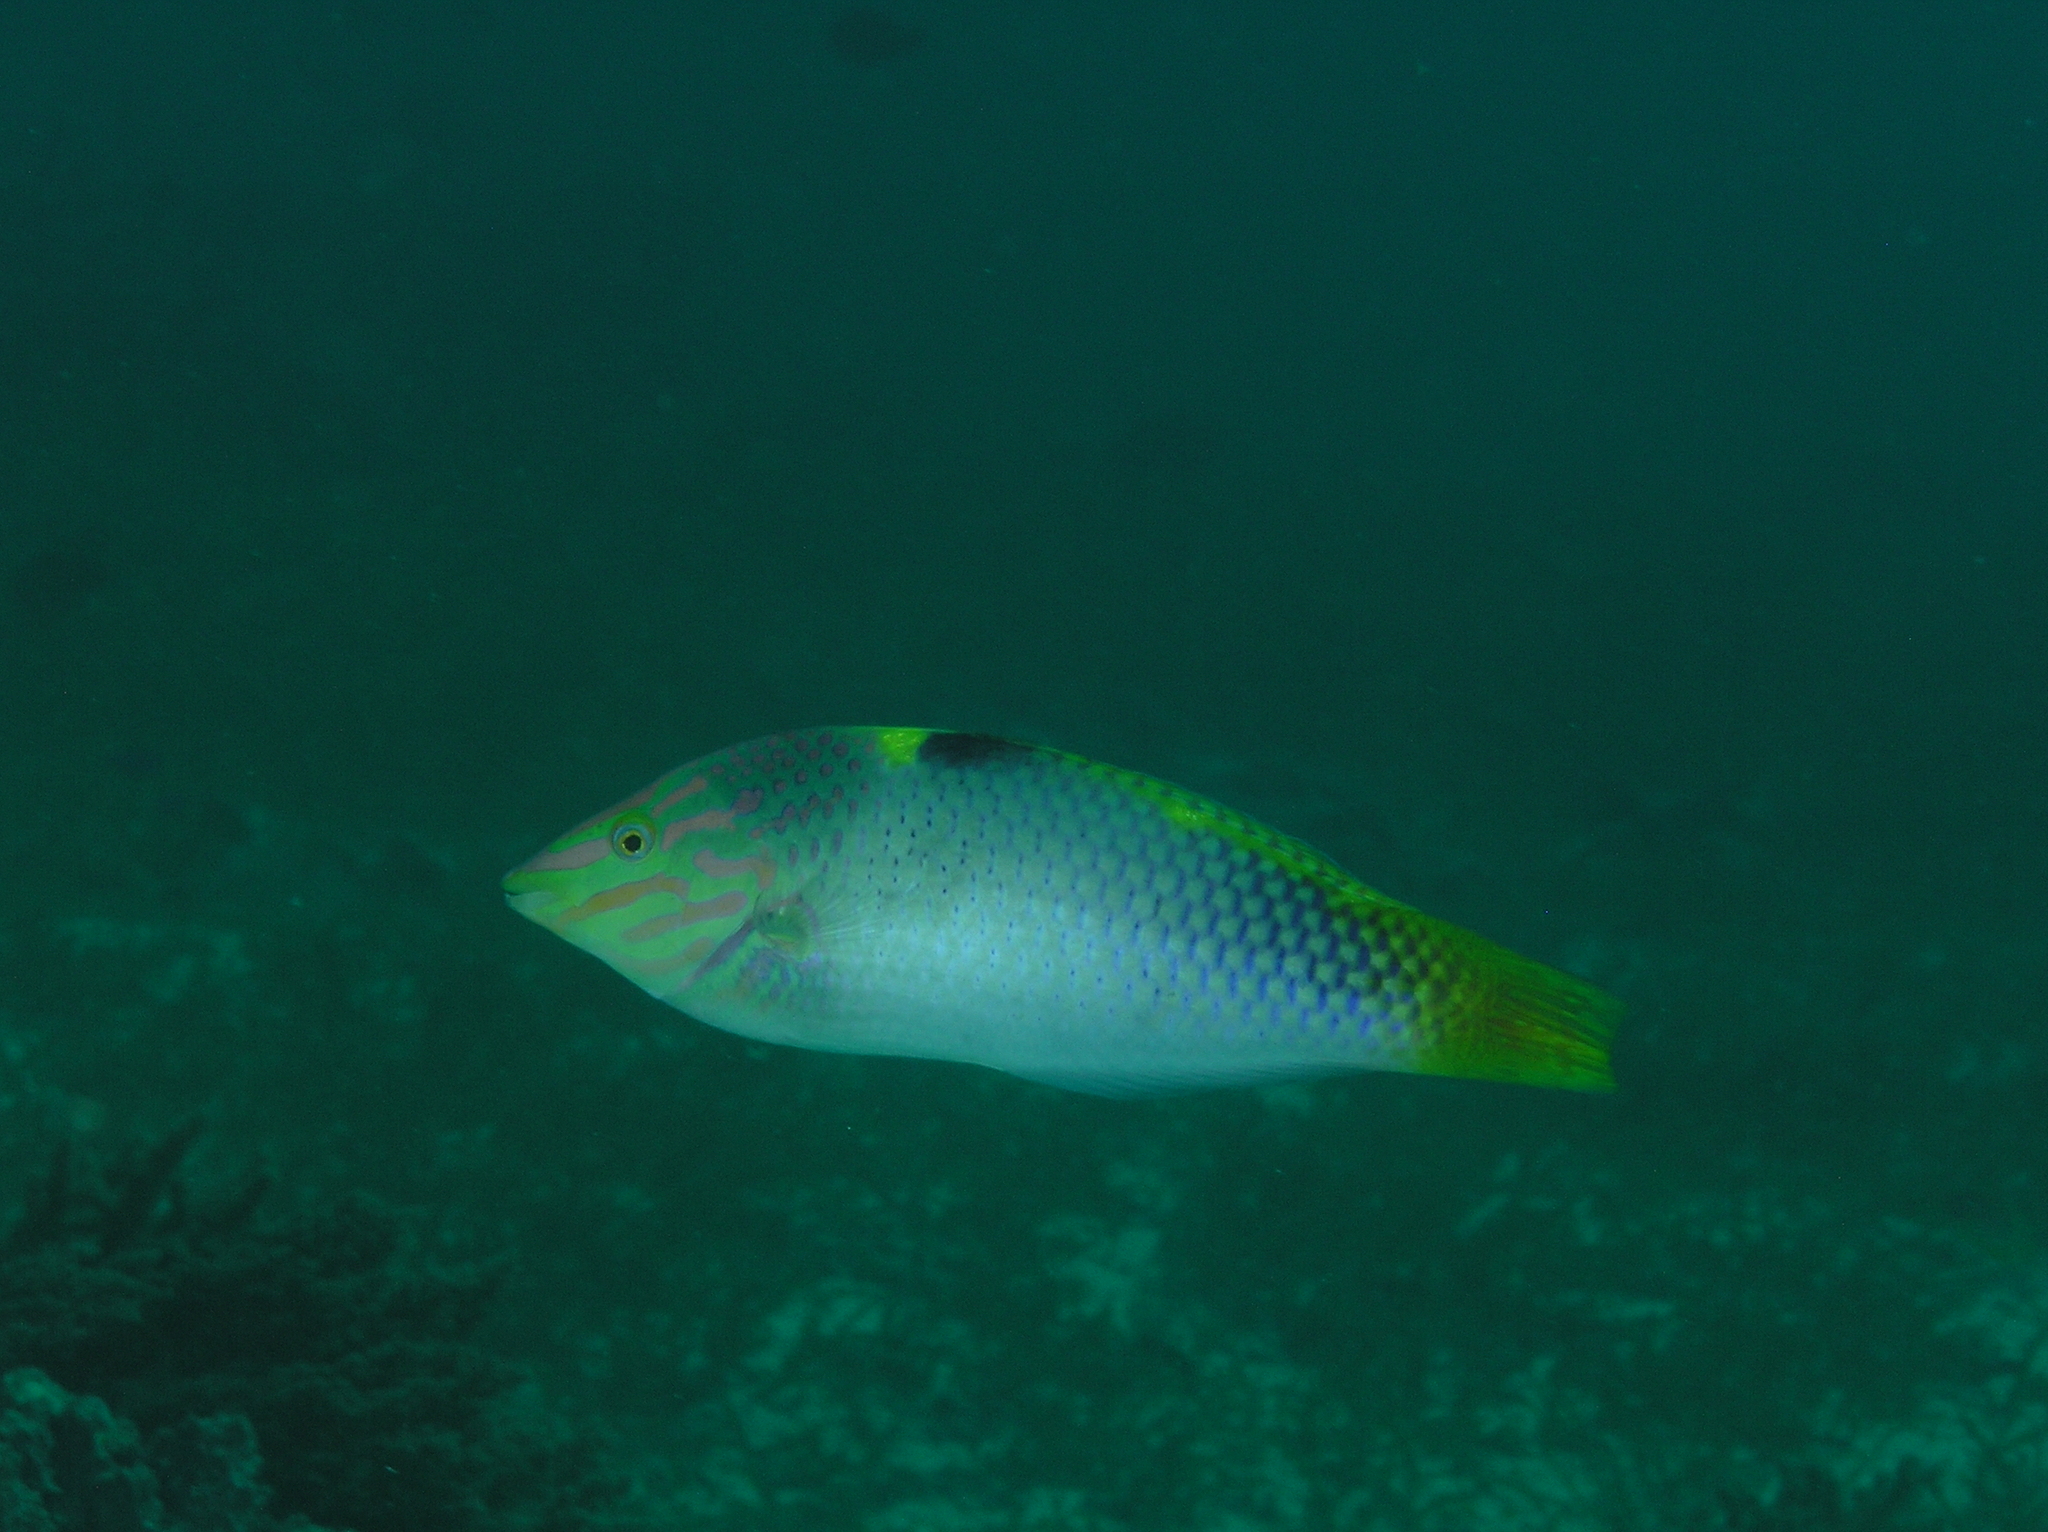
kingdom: Animalia
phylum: Chordata
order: Perciformes
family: Labridae
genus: Halichoeres
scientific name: Halichoeres hortulanus
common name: Checkerboard wrasse
